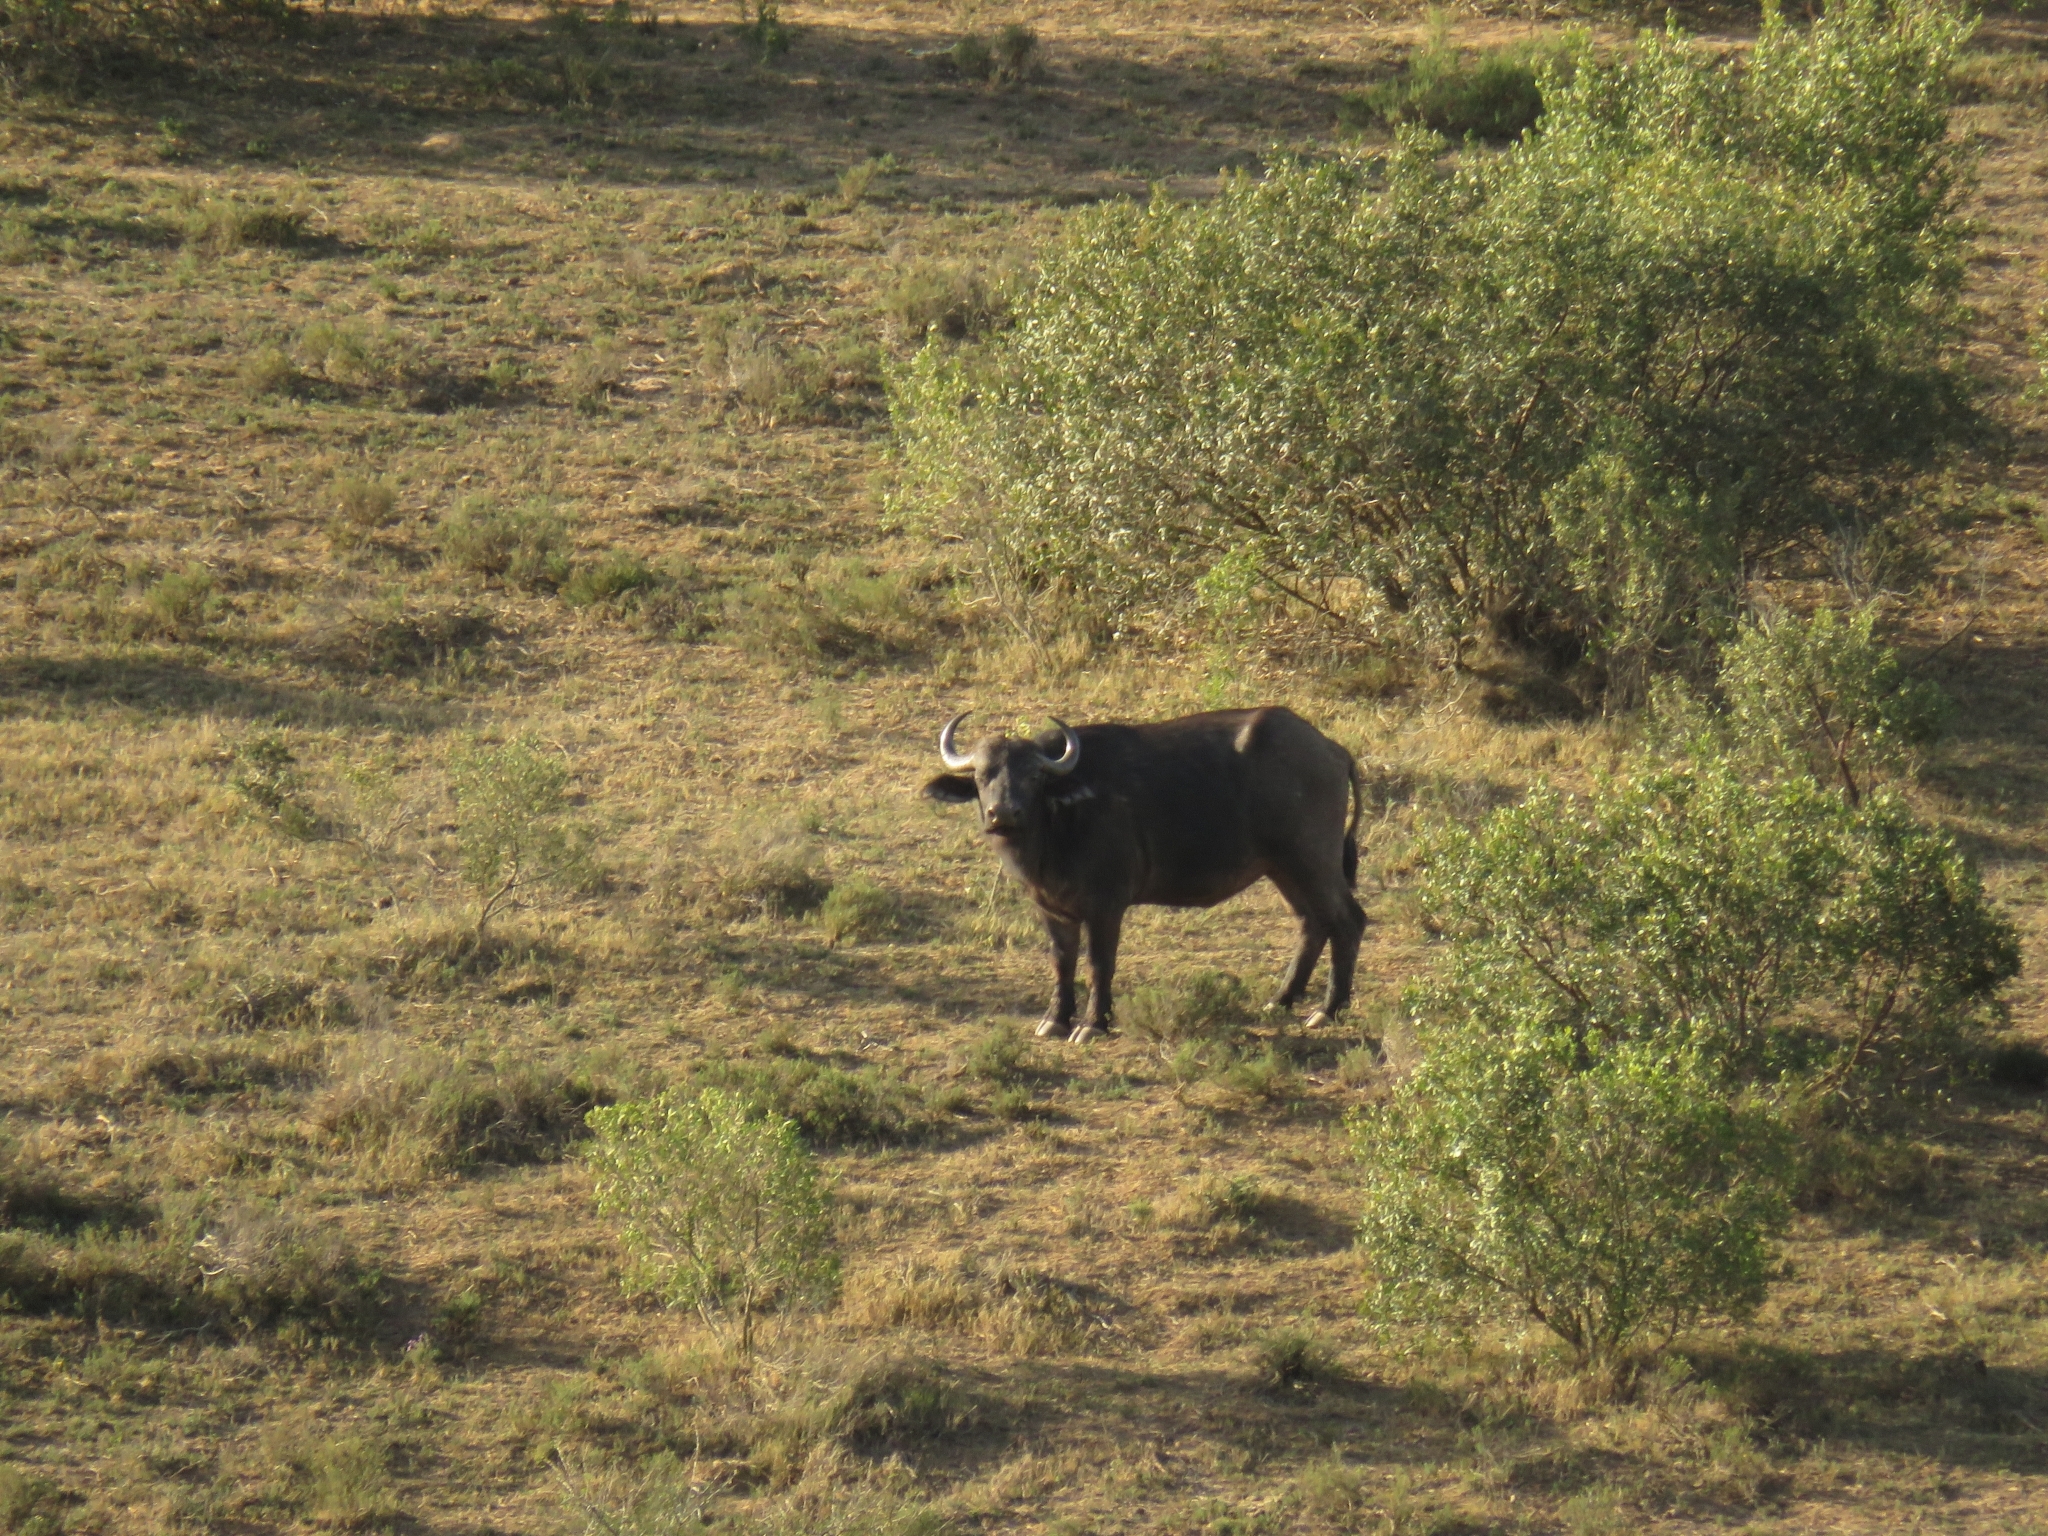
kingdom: Animalia
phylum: Chordata
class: Mammalia
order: Artiodactyla
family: Bovidae
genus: Syncerus
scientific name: Syncerus caffer
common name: African buffalo
